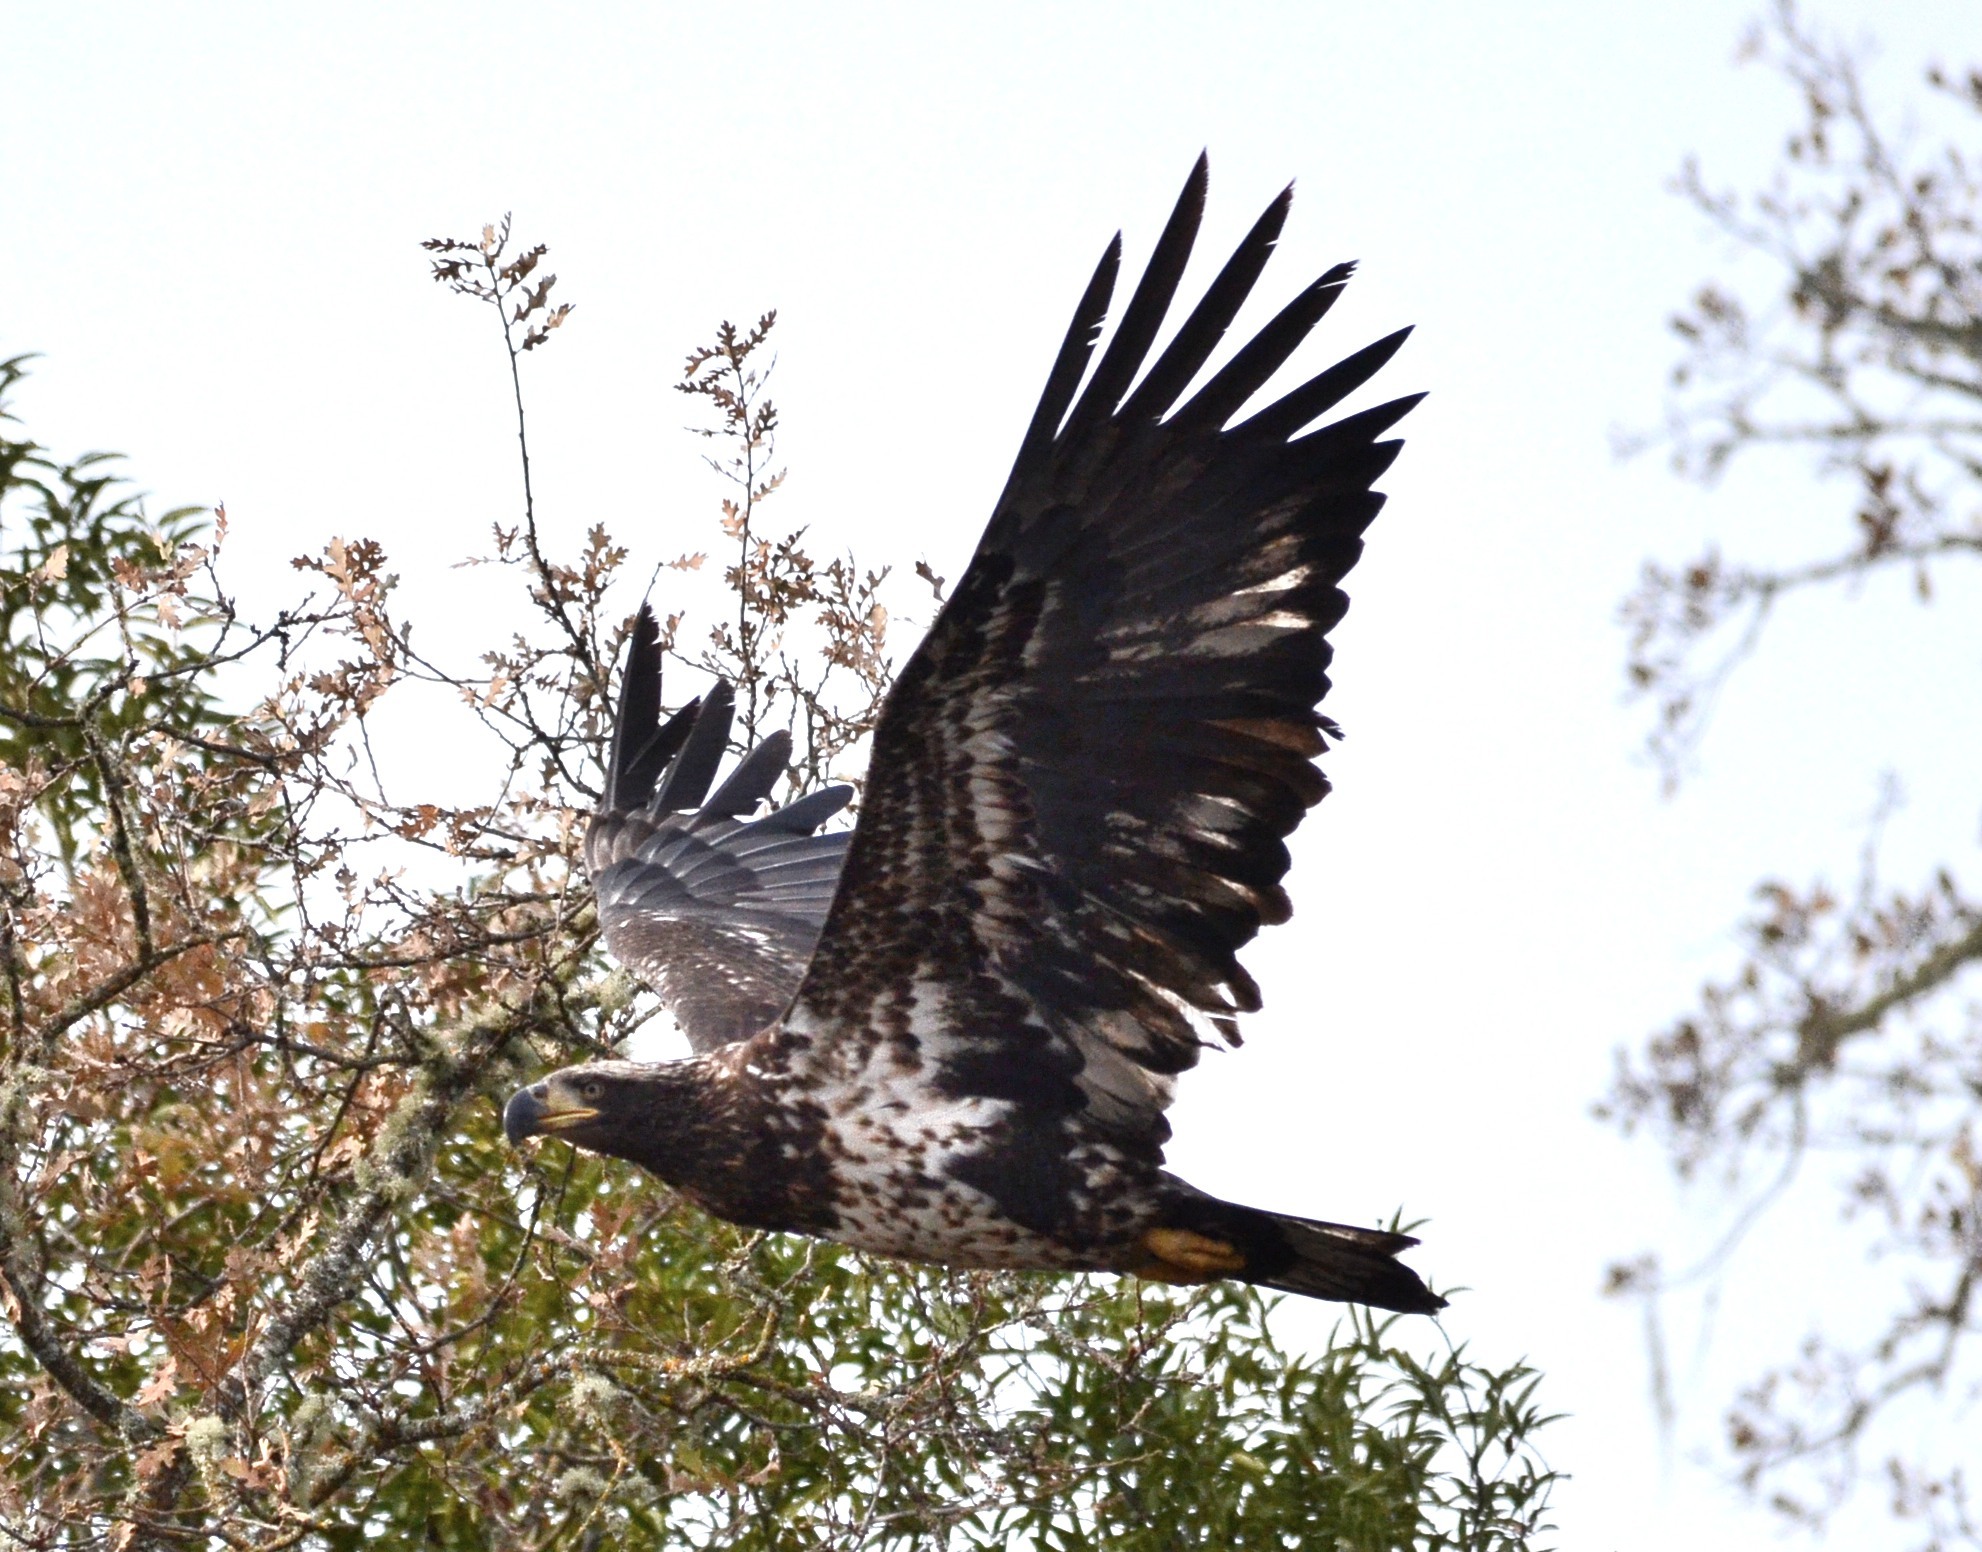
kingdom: Animalia
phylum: Chordata
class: Aves
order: Accipitriformes
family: Accipitridae
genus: Haliaeetus
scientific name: Haliaeetus leucocephalus
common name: Bald eagle
